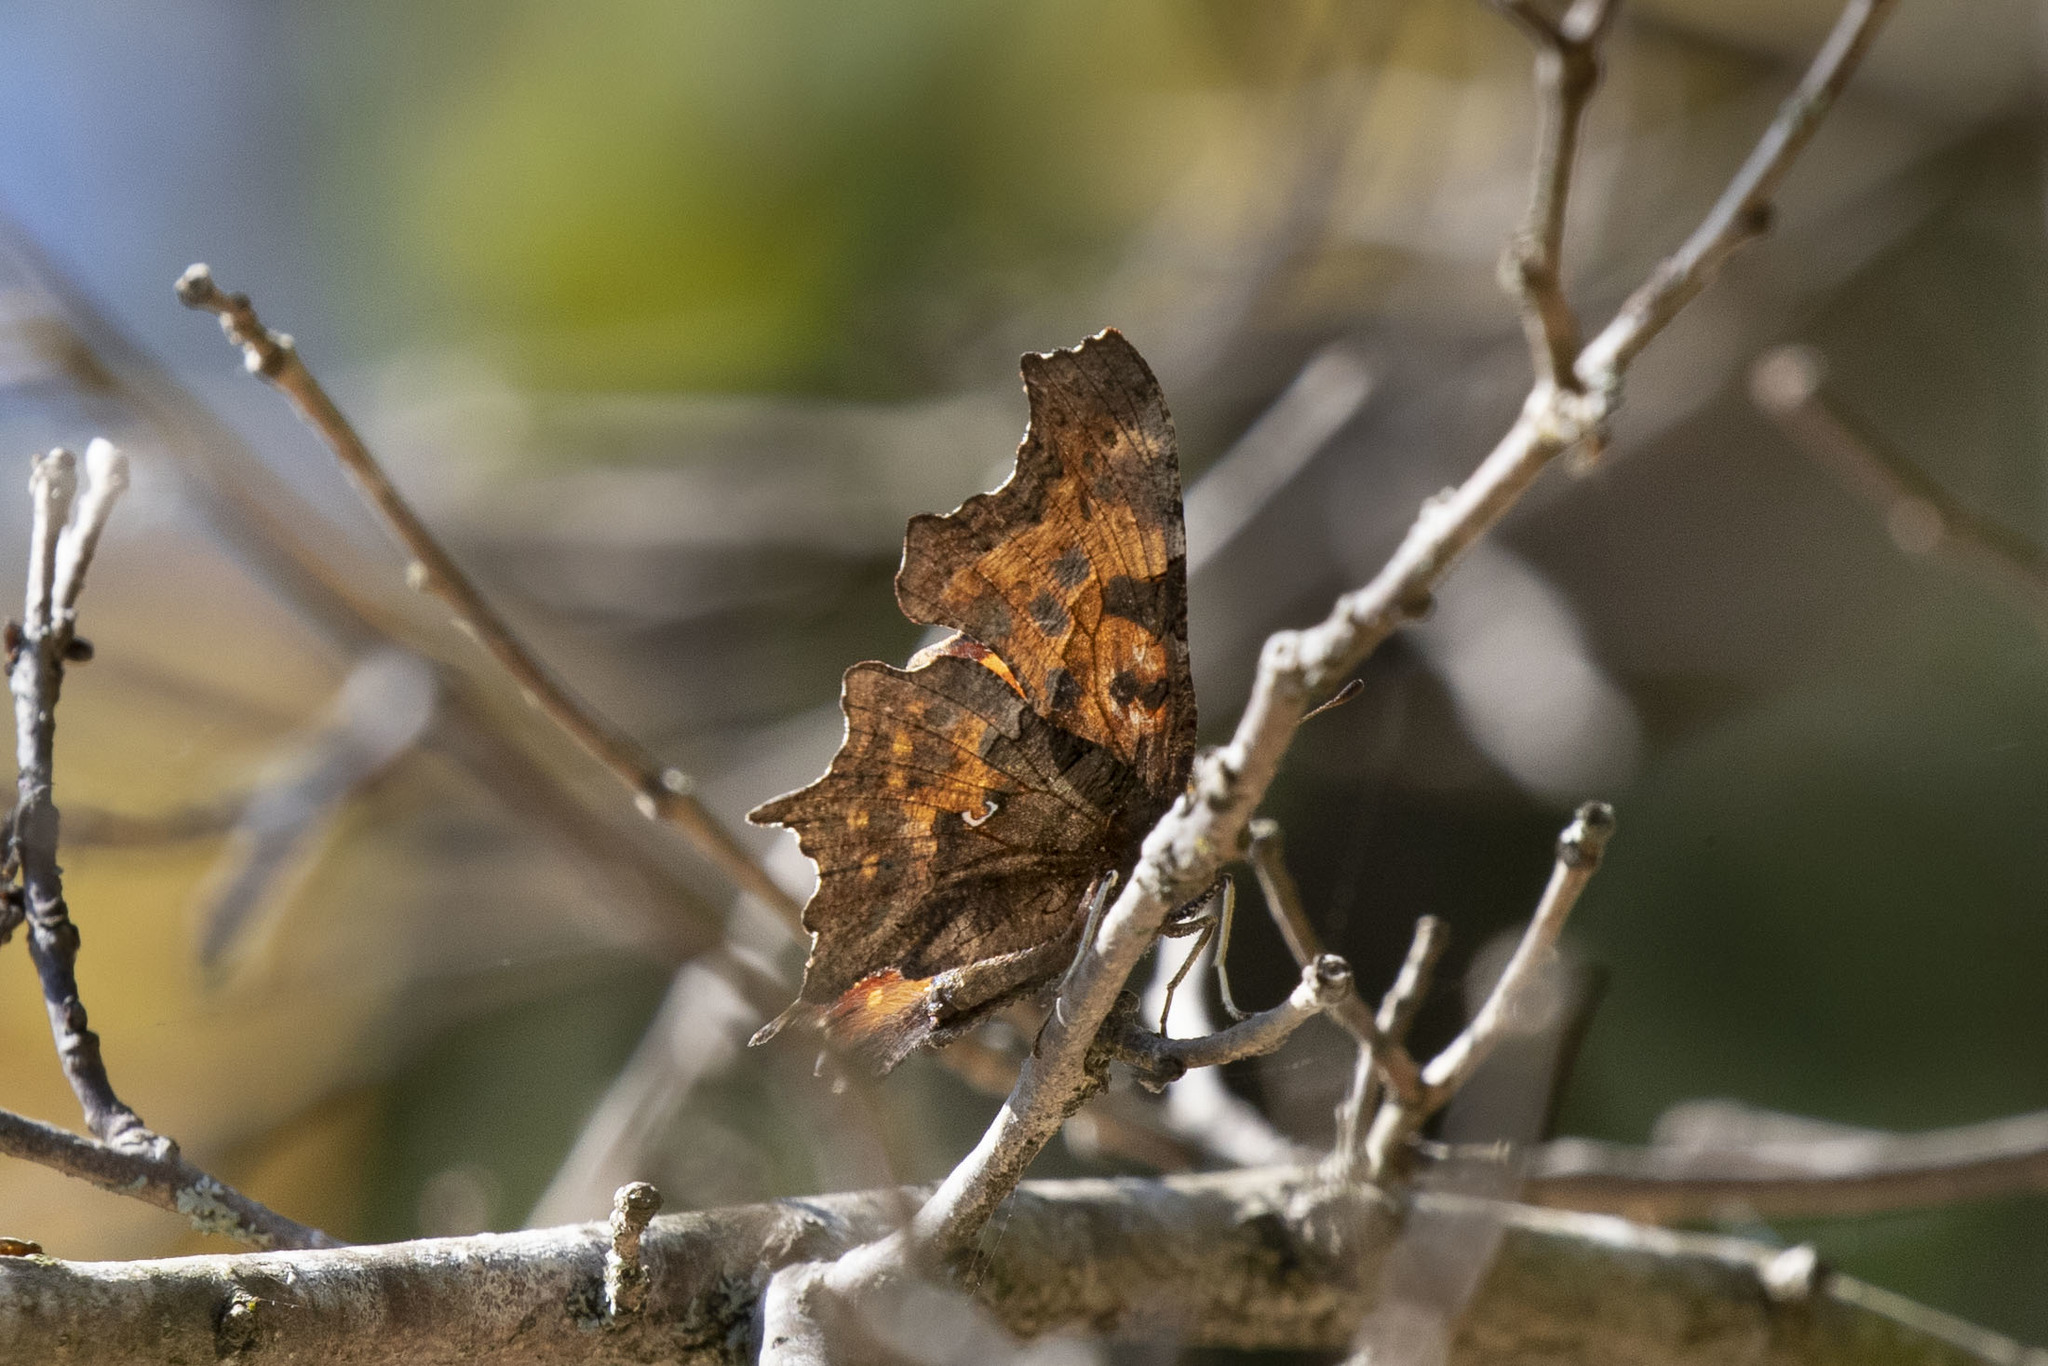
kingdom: Animalia
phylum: Arthropoda
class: Insecta
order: Lepidoptera
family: Nymphalidae
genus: Polygonia
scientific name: Polygonia c-album
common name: Comma
